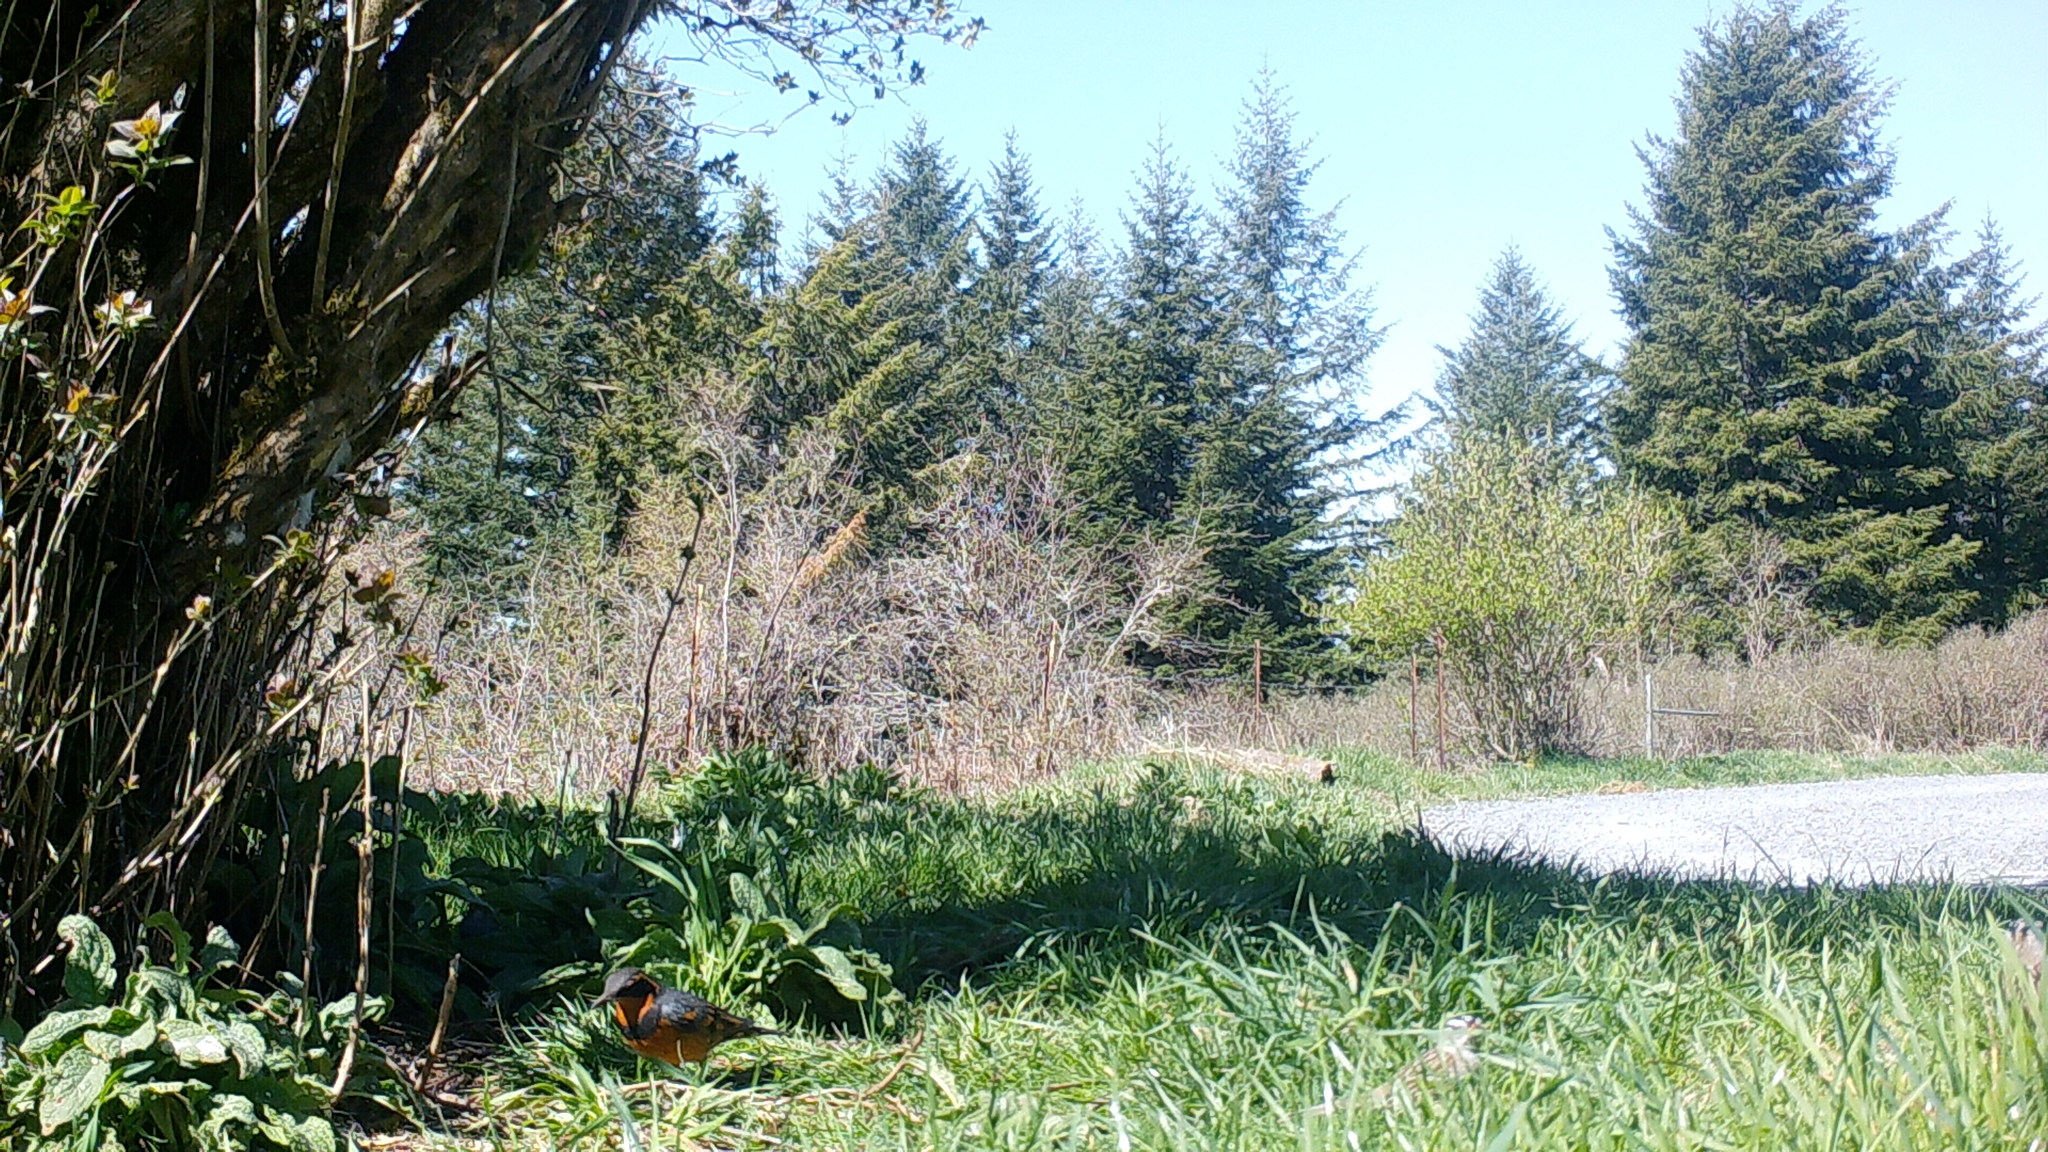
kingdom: Animalia
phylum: Chordata
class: Aves
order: Passeriformes
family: Turdidae
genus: Ixoreus
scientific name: Ixoreus naevius
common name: Varied thrush
